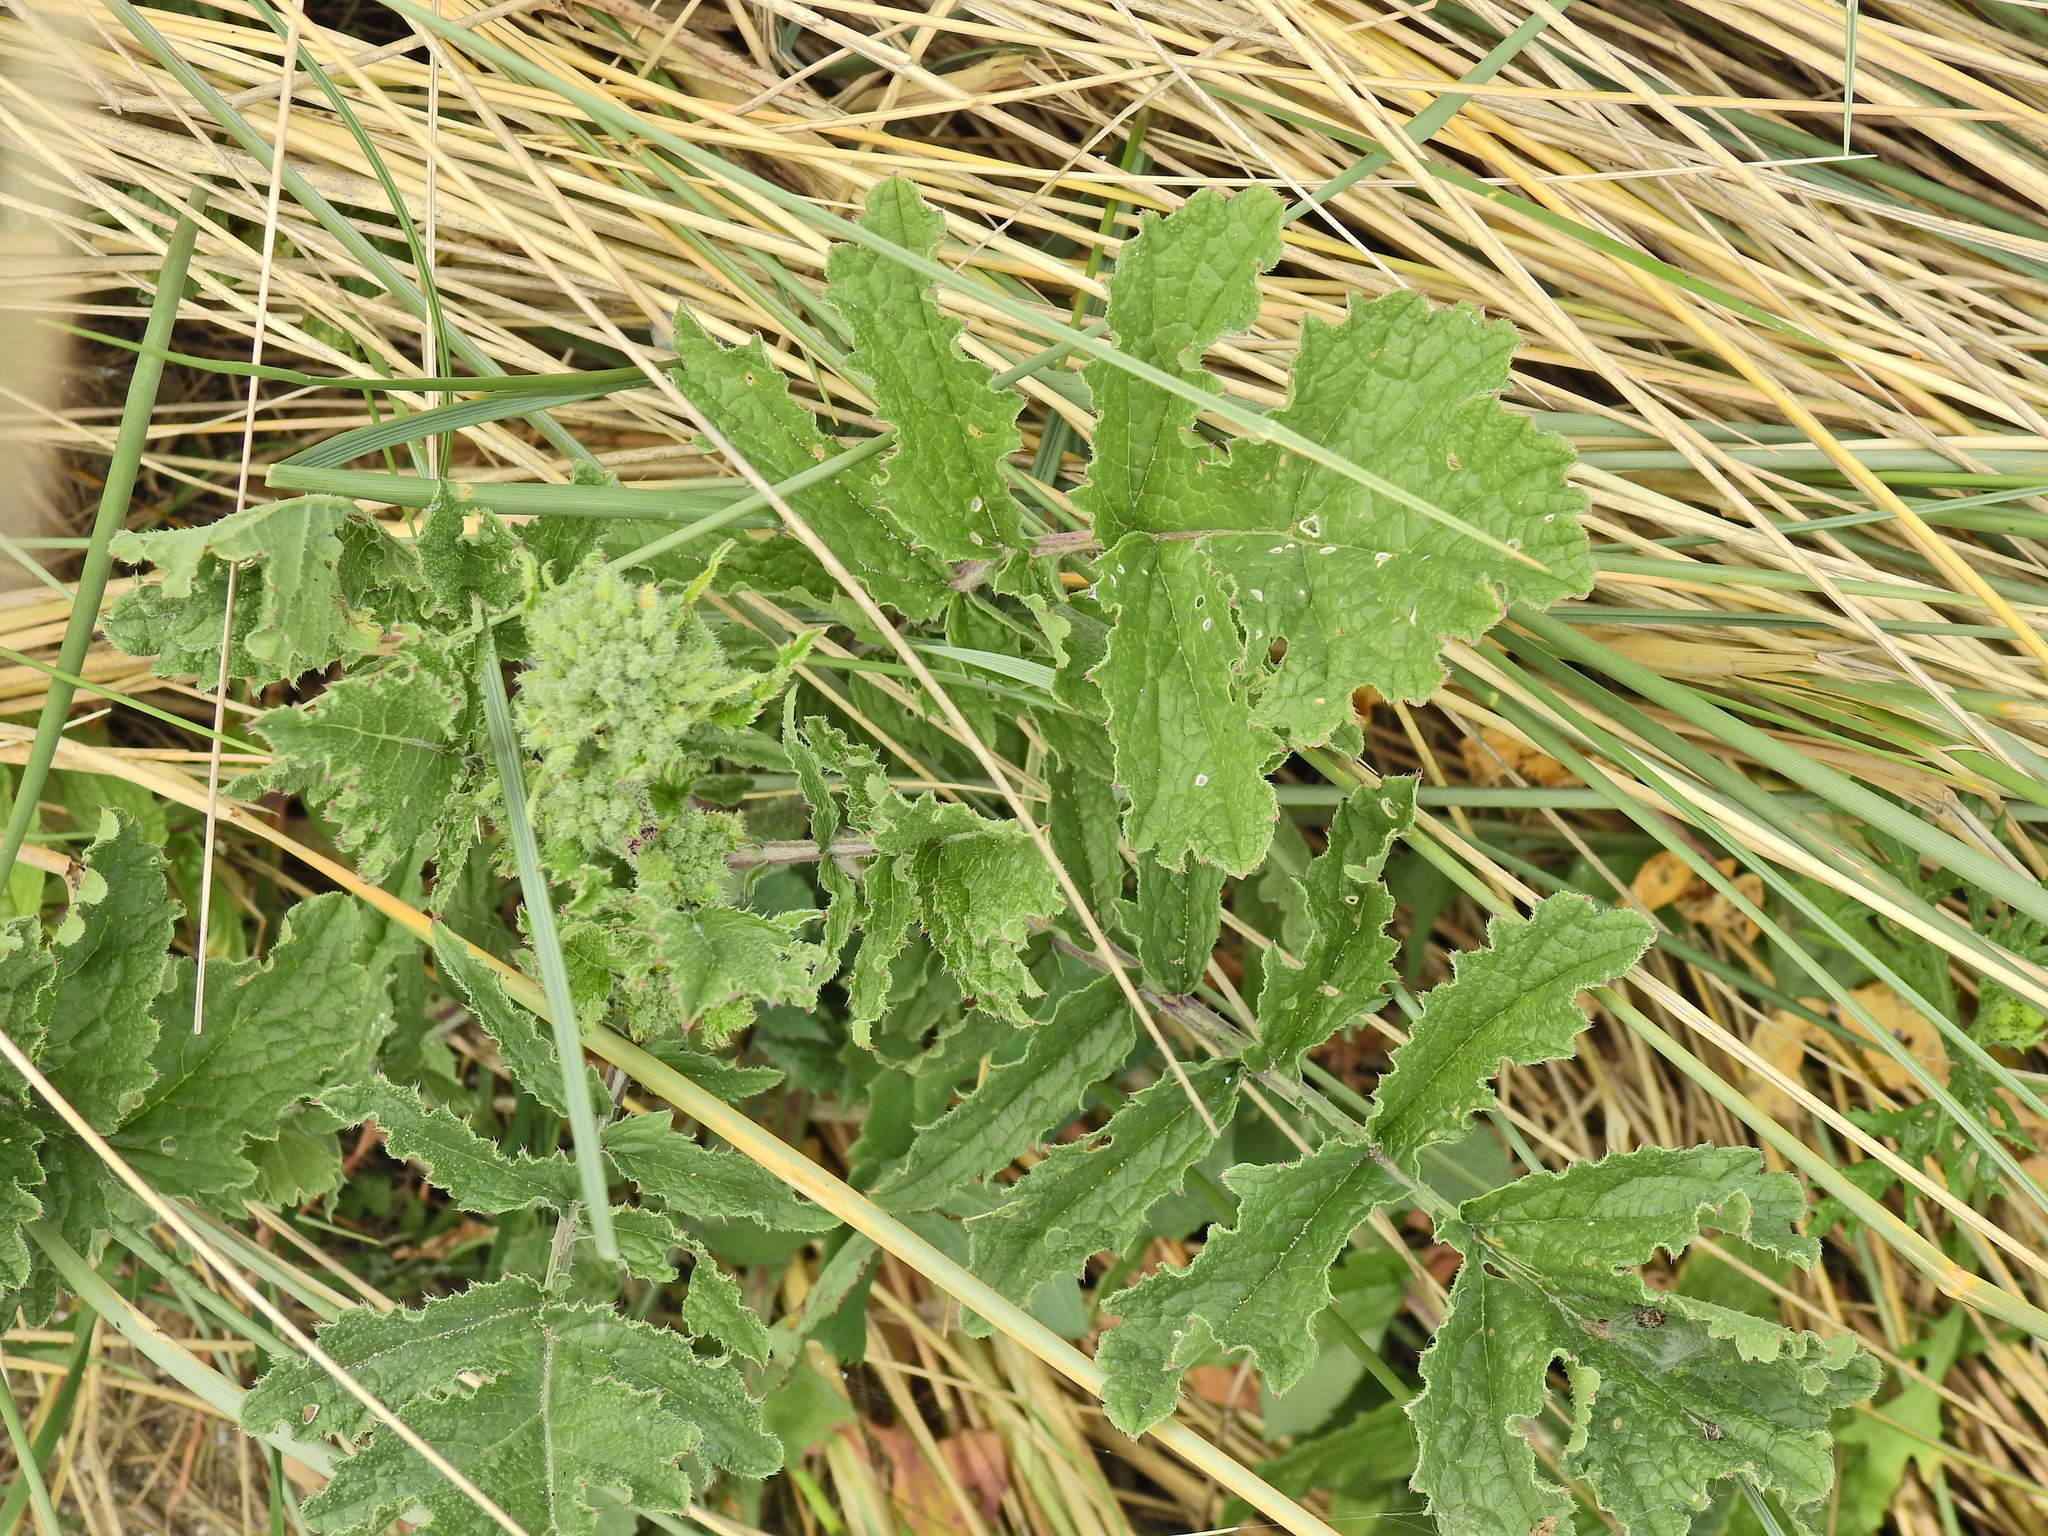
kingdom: Plantae
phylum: Tracheophyta
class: Magnoliopsida
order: Brassicales
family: Brassicaceae
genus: Raphanus
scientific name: Raphanus raphanistrum
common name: Wild radish
